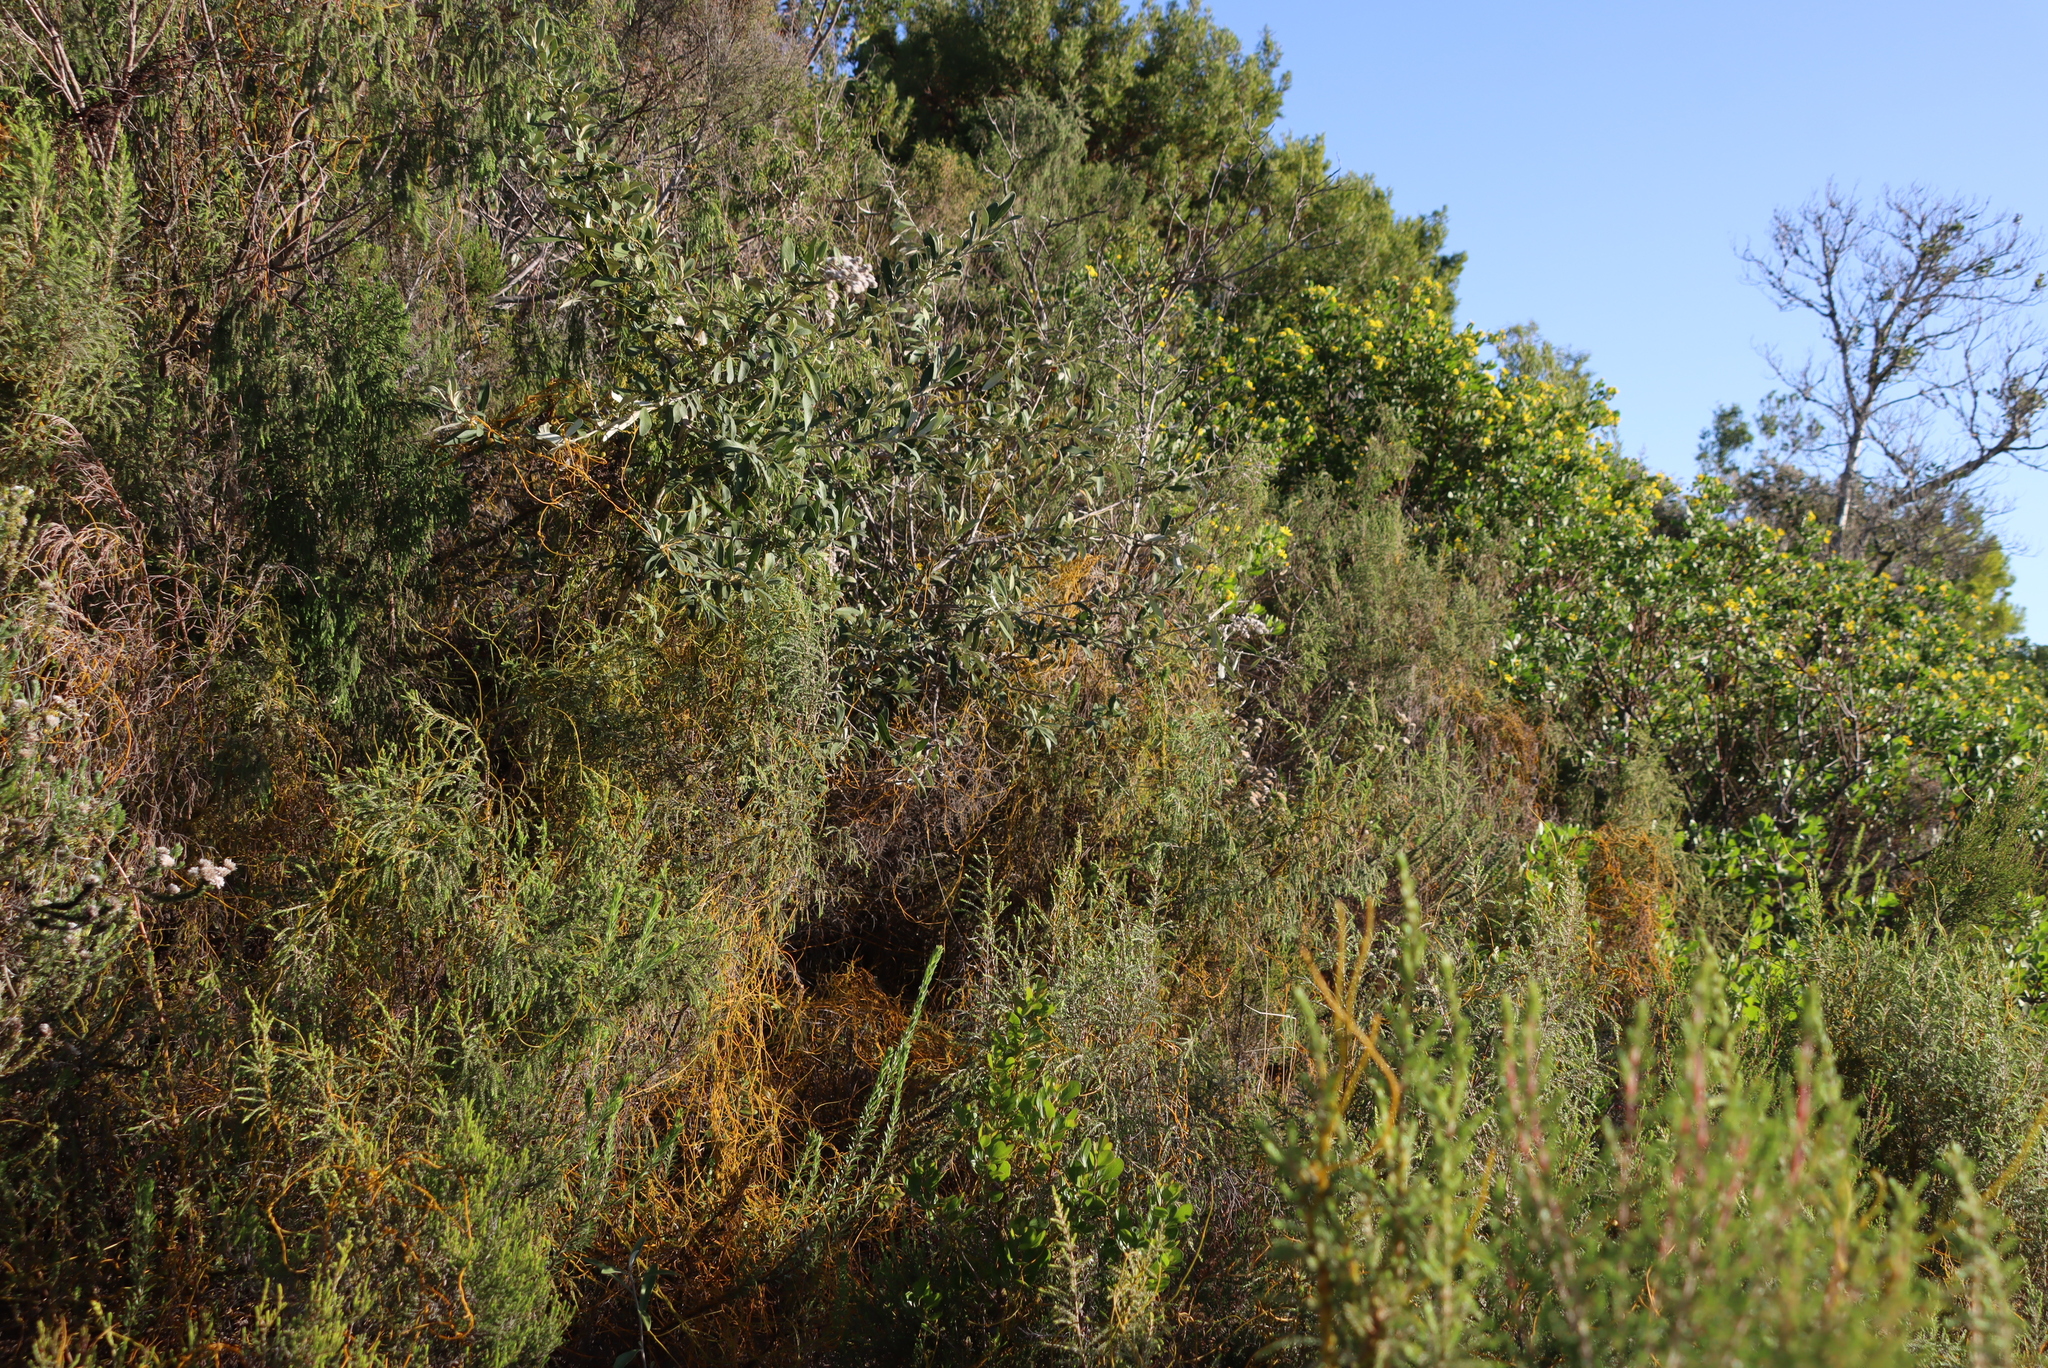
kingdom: Plantae
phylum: Tracheophyta
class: Magnoliopsida
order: Laurales
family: Lauraceae
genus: Cassytha
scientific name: Cassytha ciliolata
